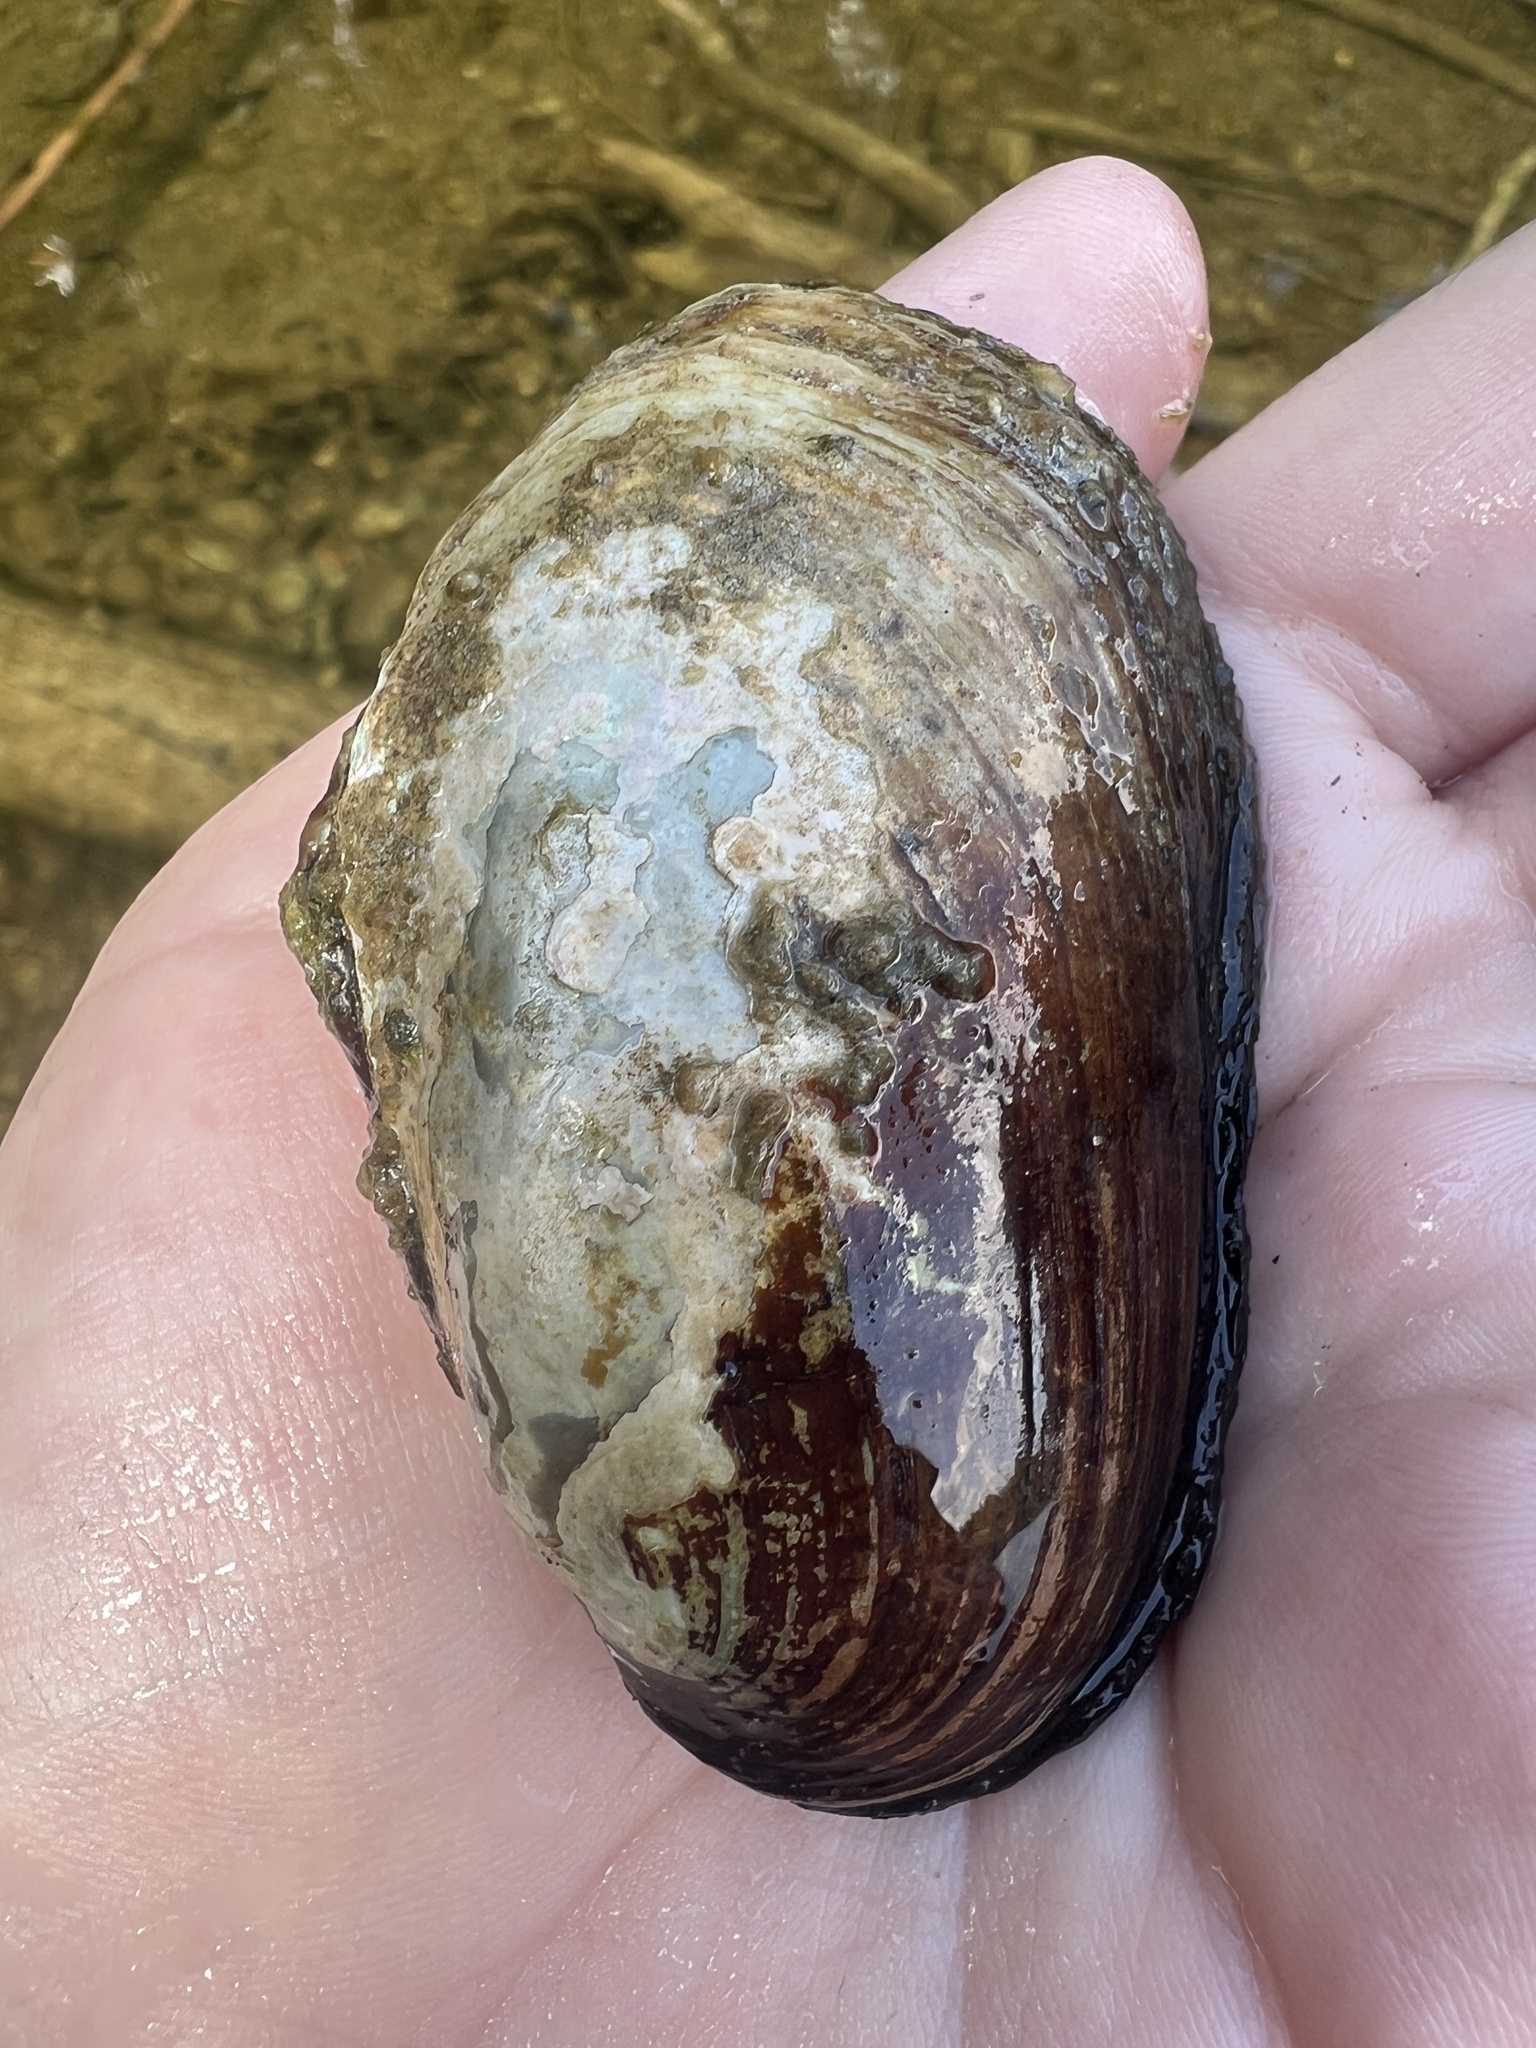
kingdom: Animalia
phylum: Mollusca
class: Bivalvia
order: Unionida
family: Unionidae
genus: Lampsilis
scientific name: Lampsilis siliquoidea
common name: Fatmucket
